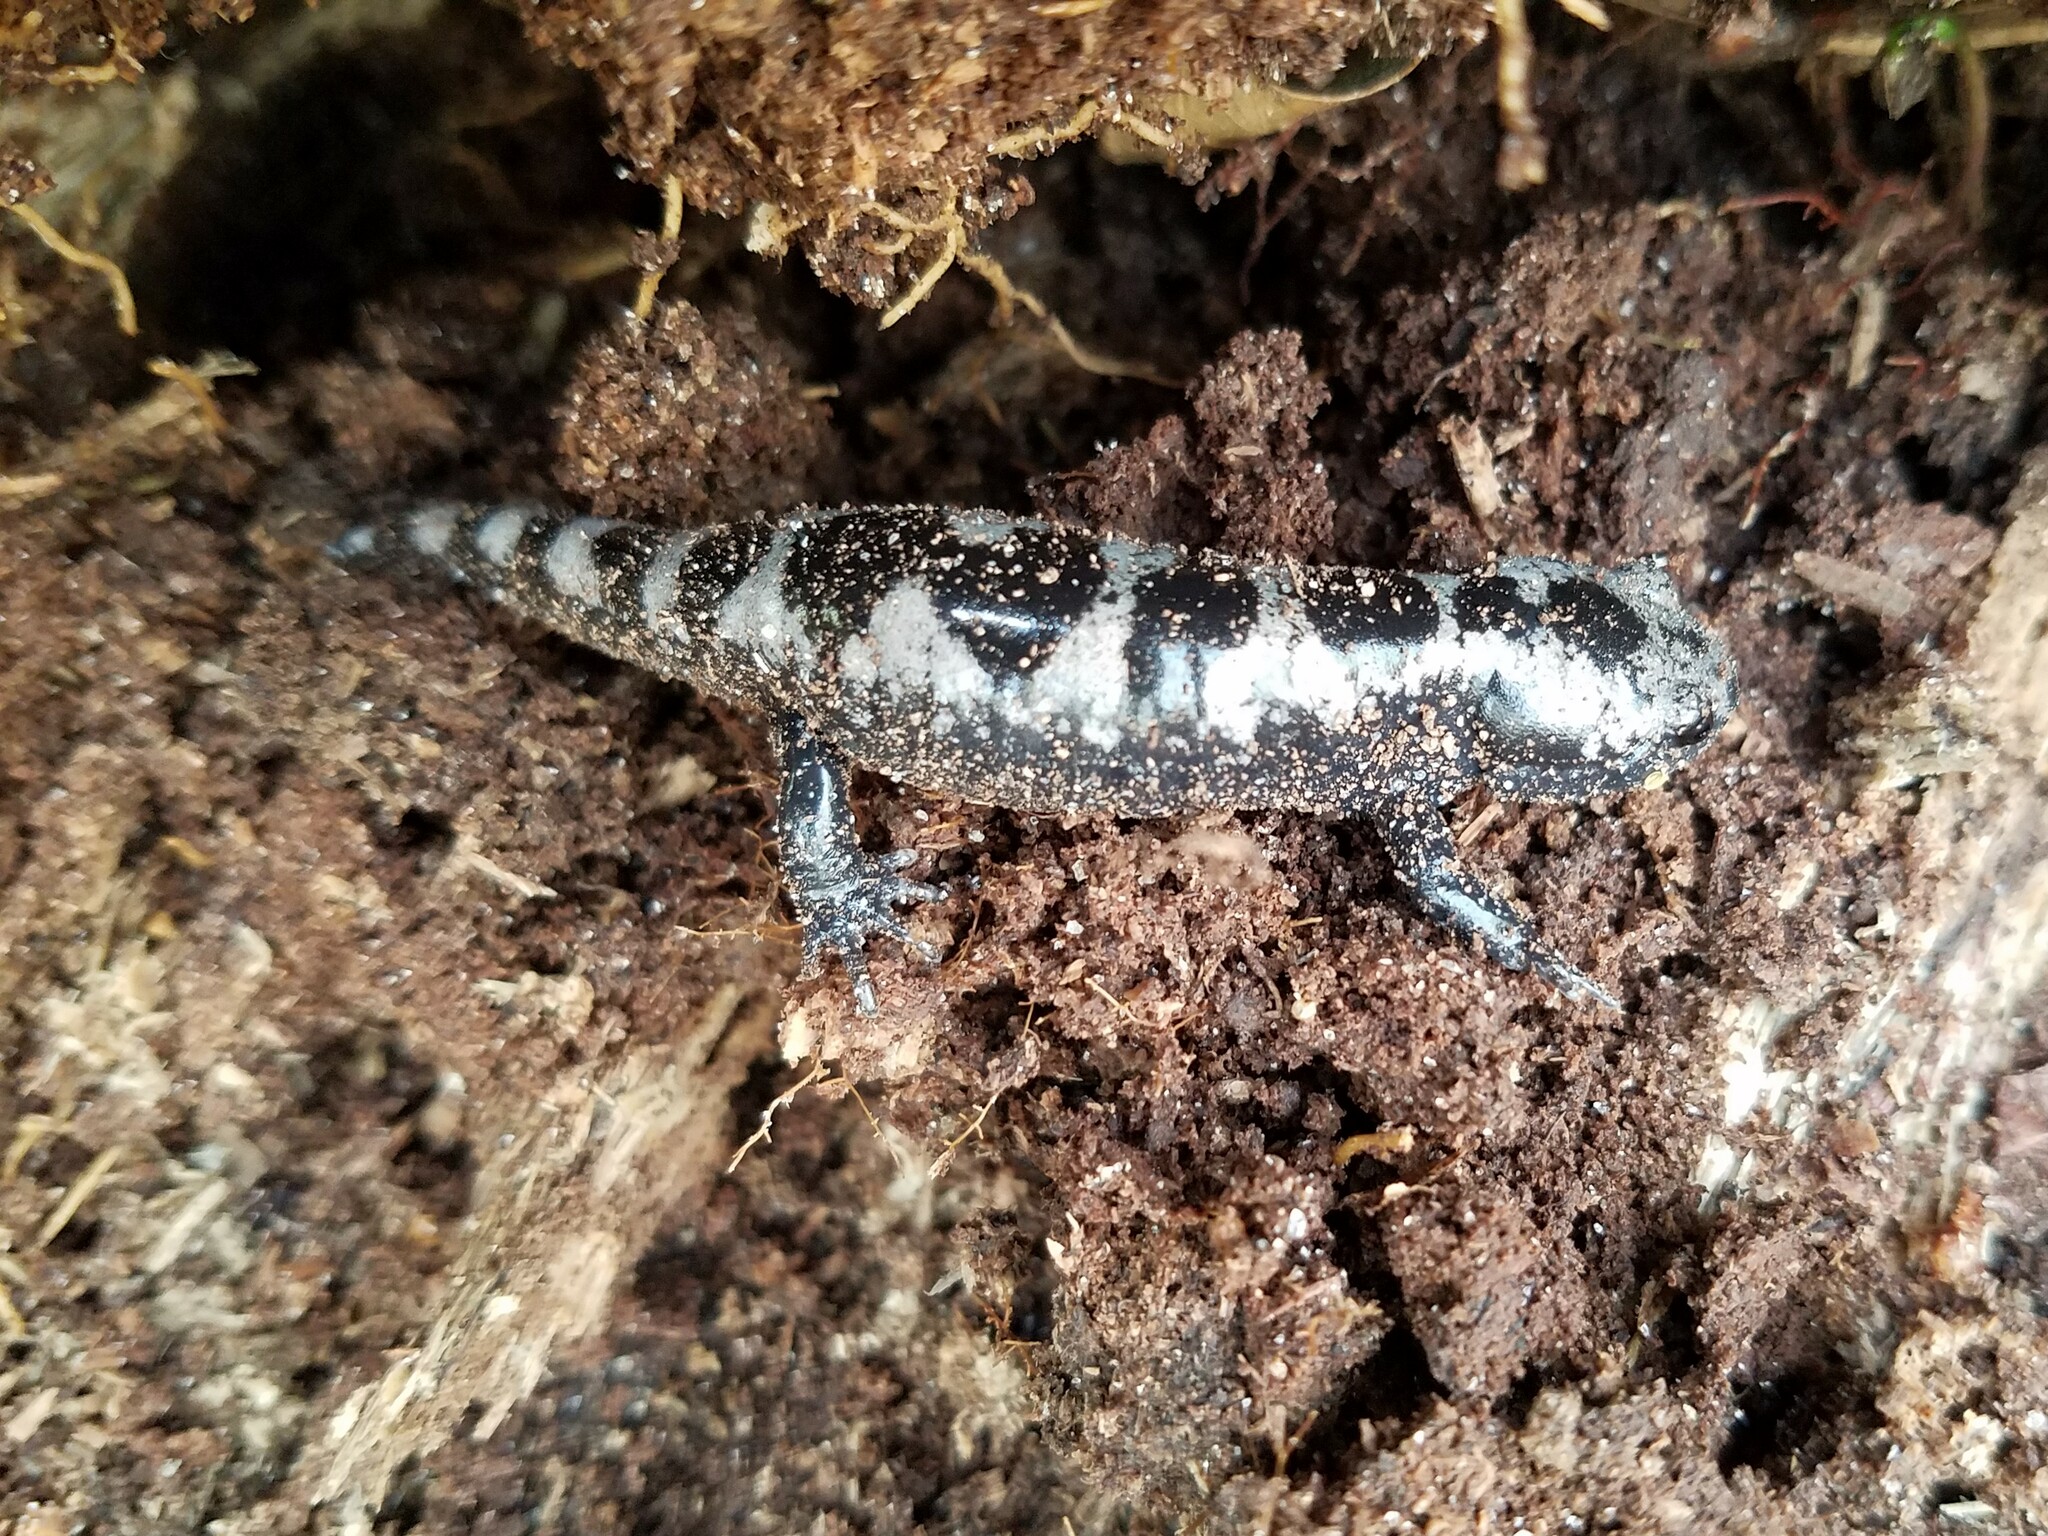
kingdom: Animalia
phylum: Chordata
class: Amphibia
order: Caudata
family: Ambystomatidae
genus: Ambystoma
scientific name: Ambystoma opacum
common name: Marbled salamander
